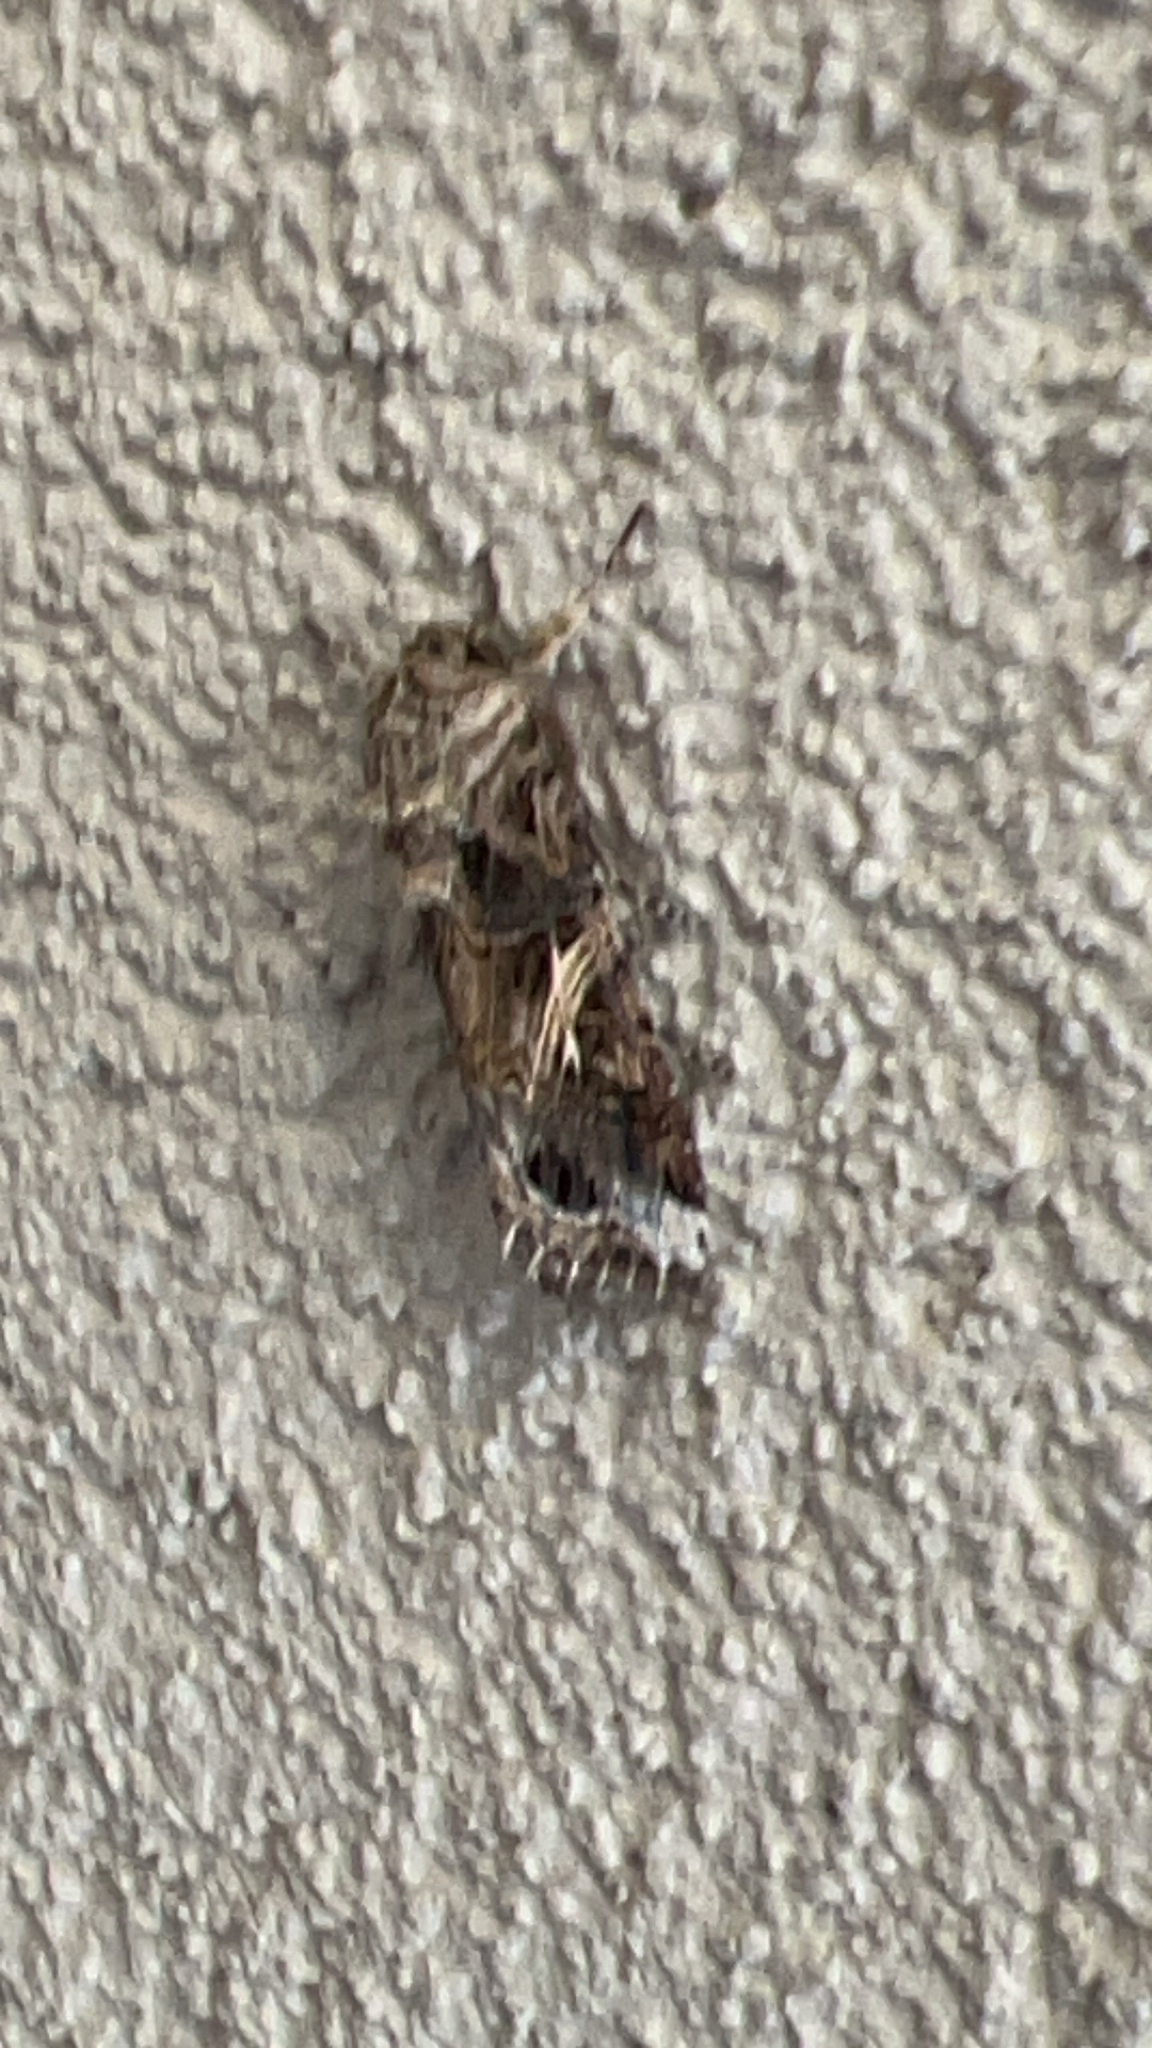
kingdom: Animalia
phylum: Arthropoda
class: Insecta
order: Lepidoptera
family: Noctuidae
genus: Spodoptera
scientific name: Spodoptera ornithogalli
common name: Yellow-striped armyworm
